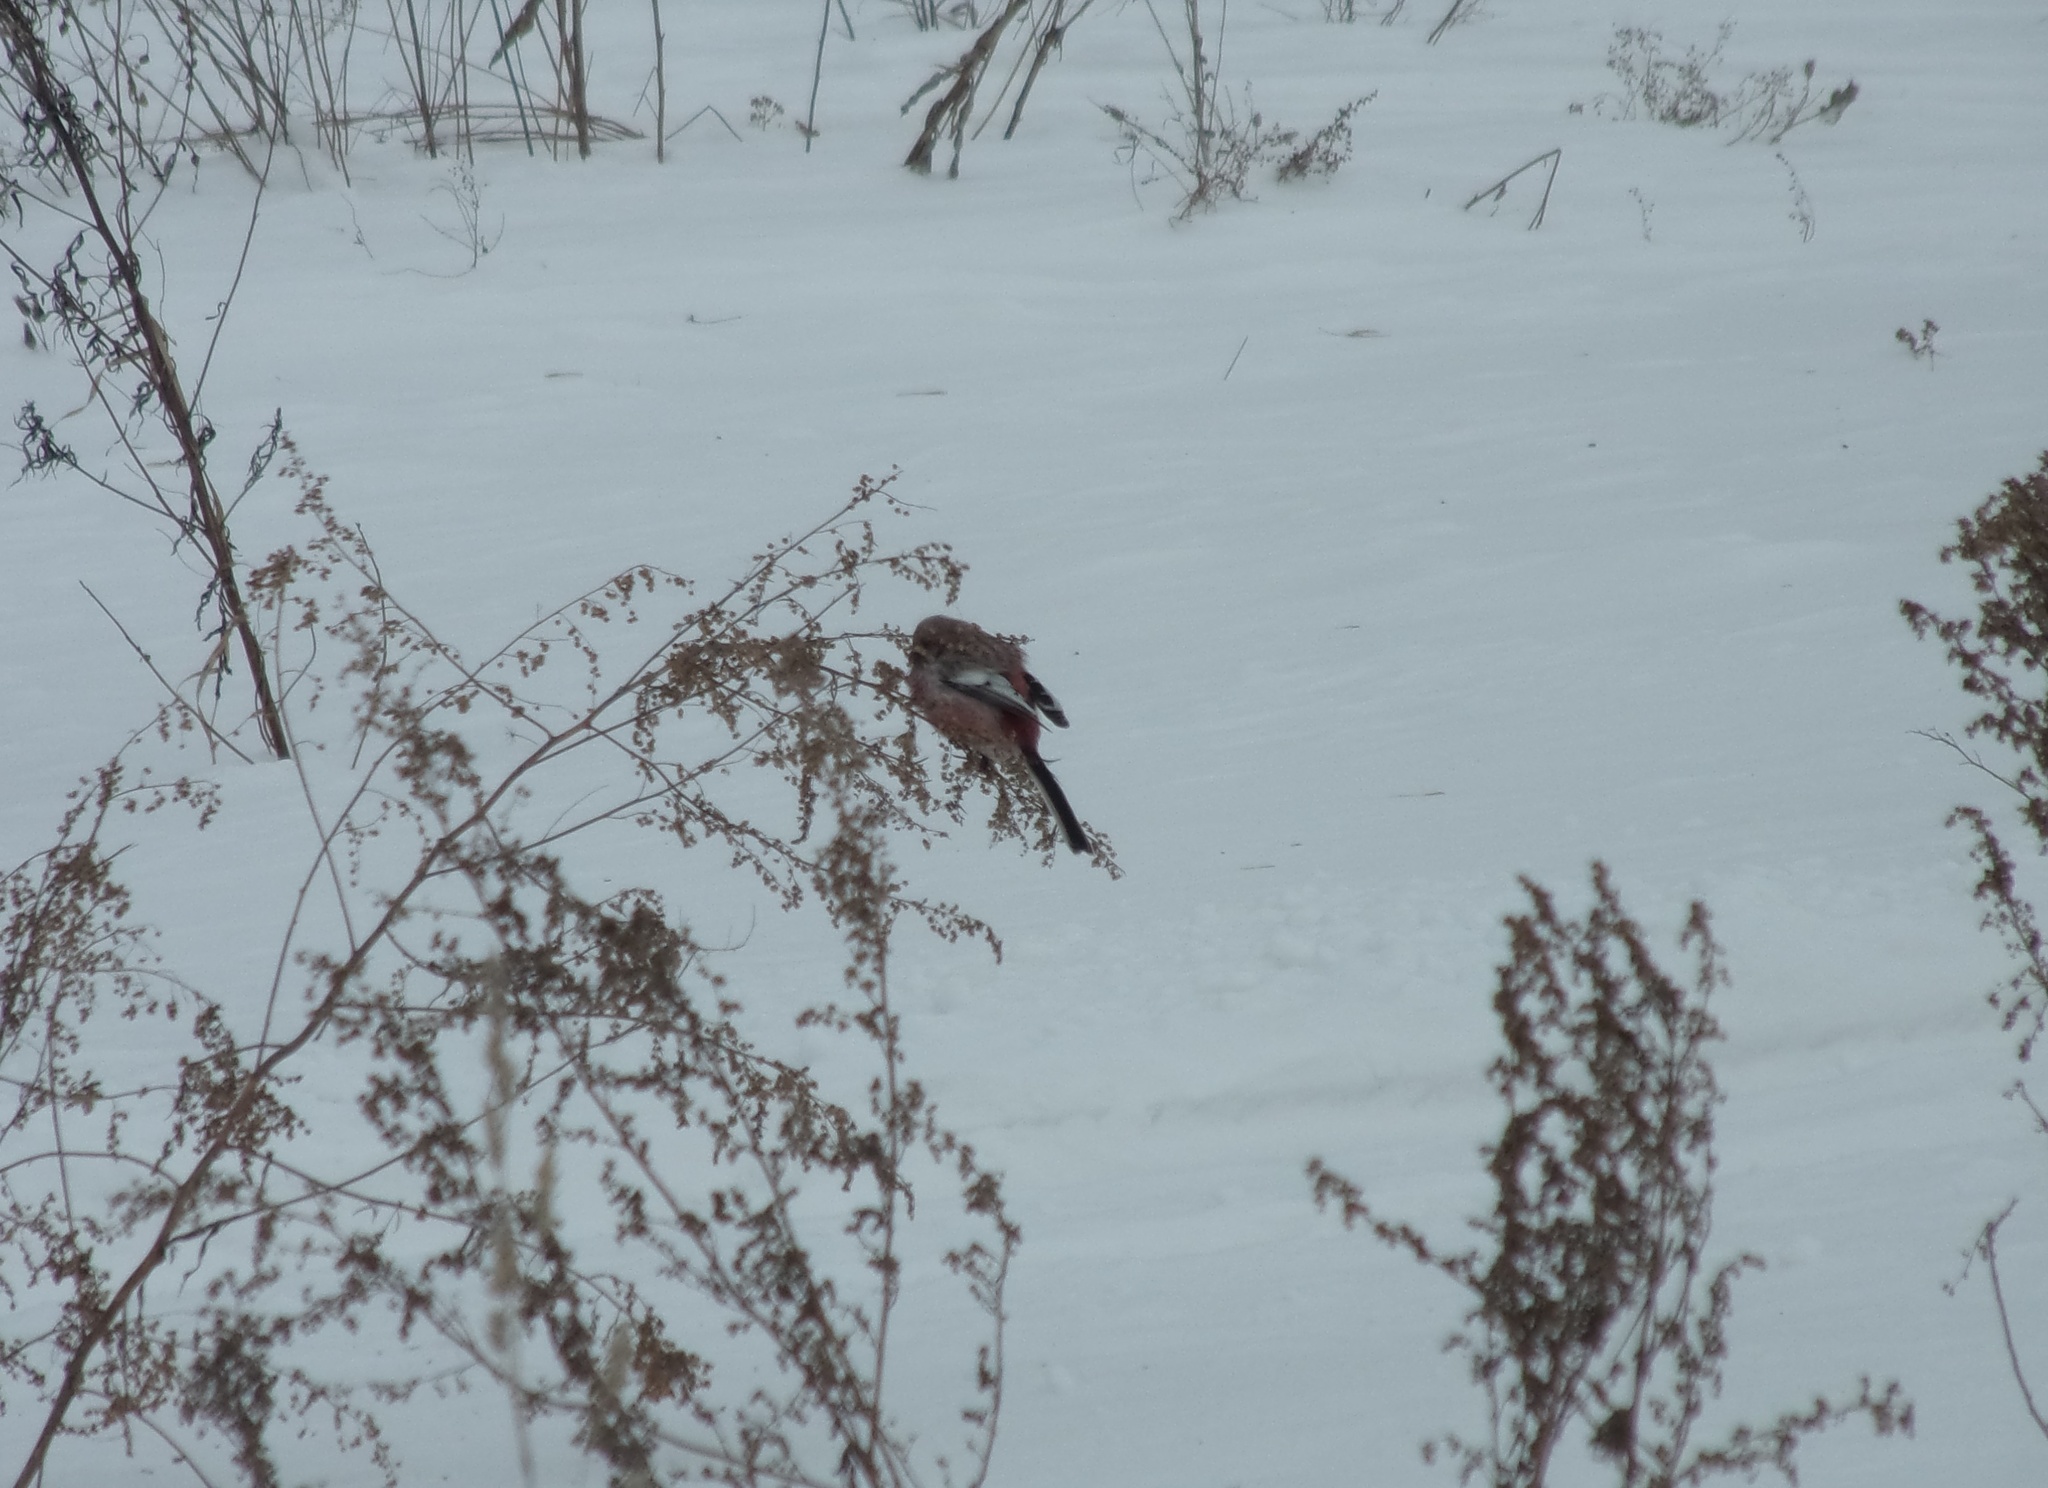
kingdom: Animalia
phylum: Chordata
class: Aves
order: Passeriformes
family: Fringillidae
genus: Carpodacus
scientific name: Carpodacus sibiricus
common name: Long-tailed rosefinch
